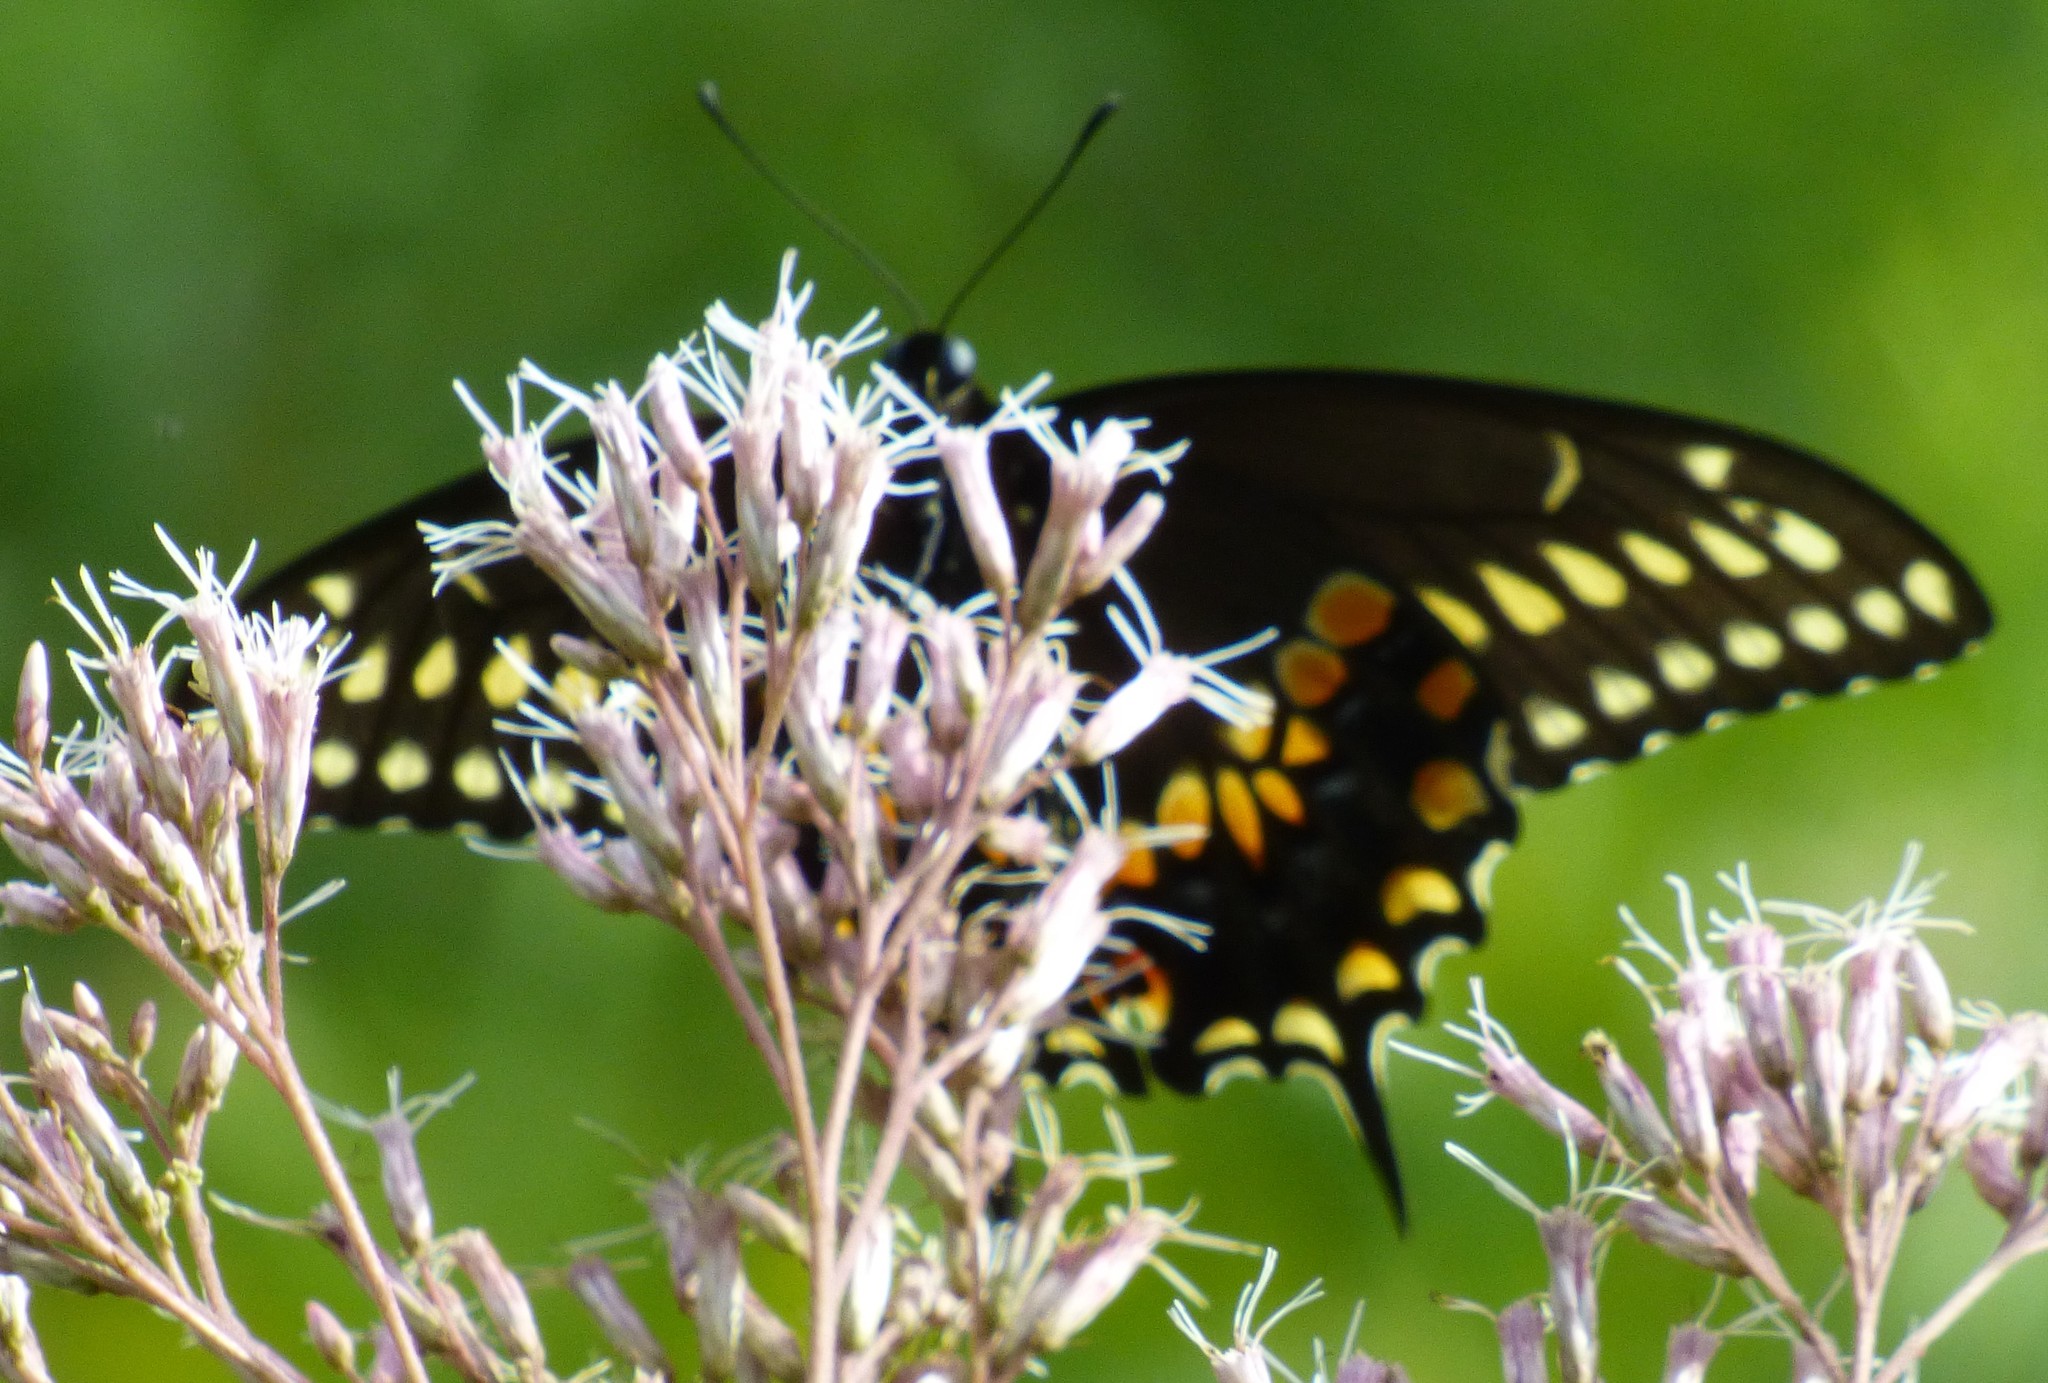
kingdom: Animalia
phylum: Arthropoda
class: Insecta
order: Lepidoptera
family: Papilionidae
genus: Papilio
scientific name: Papilio polyxenes
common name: Black swallowtail
